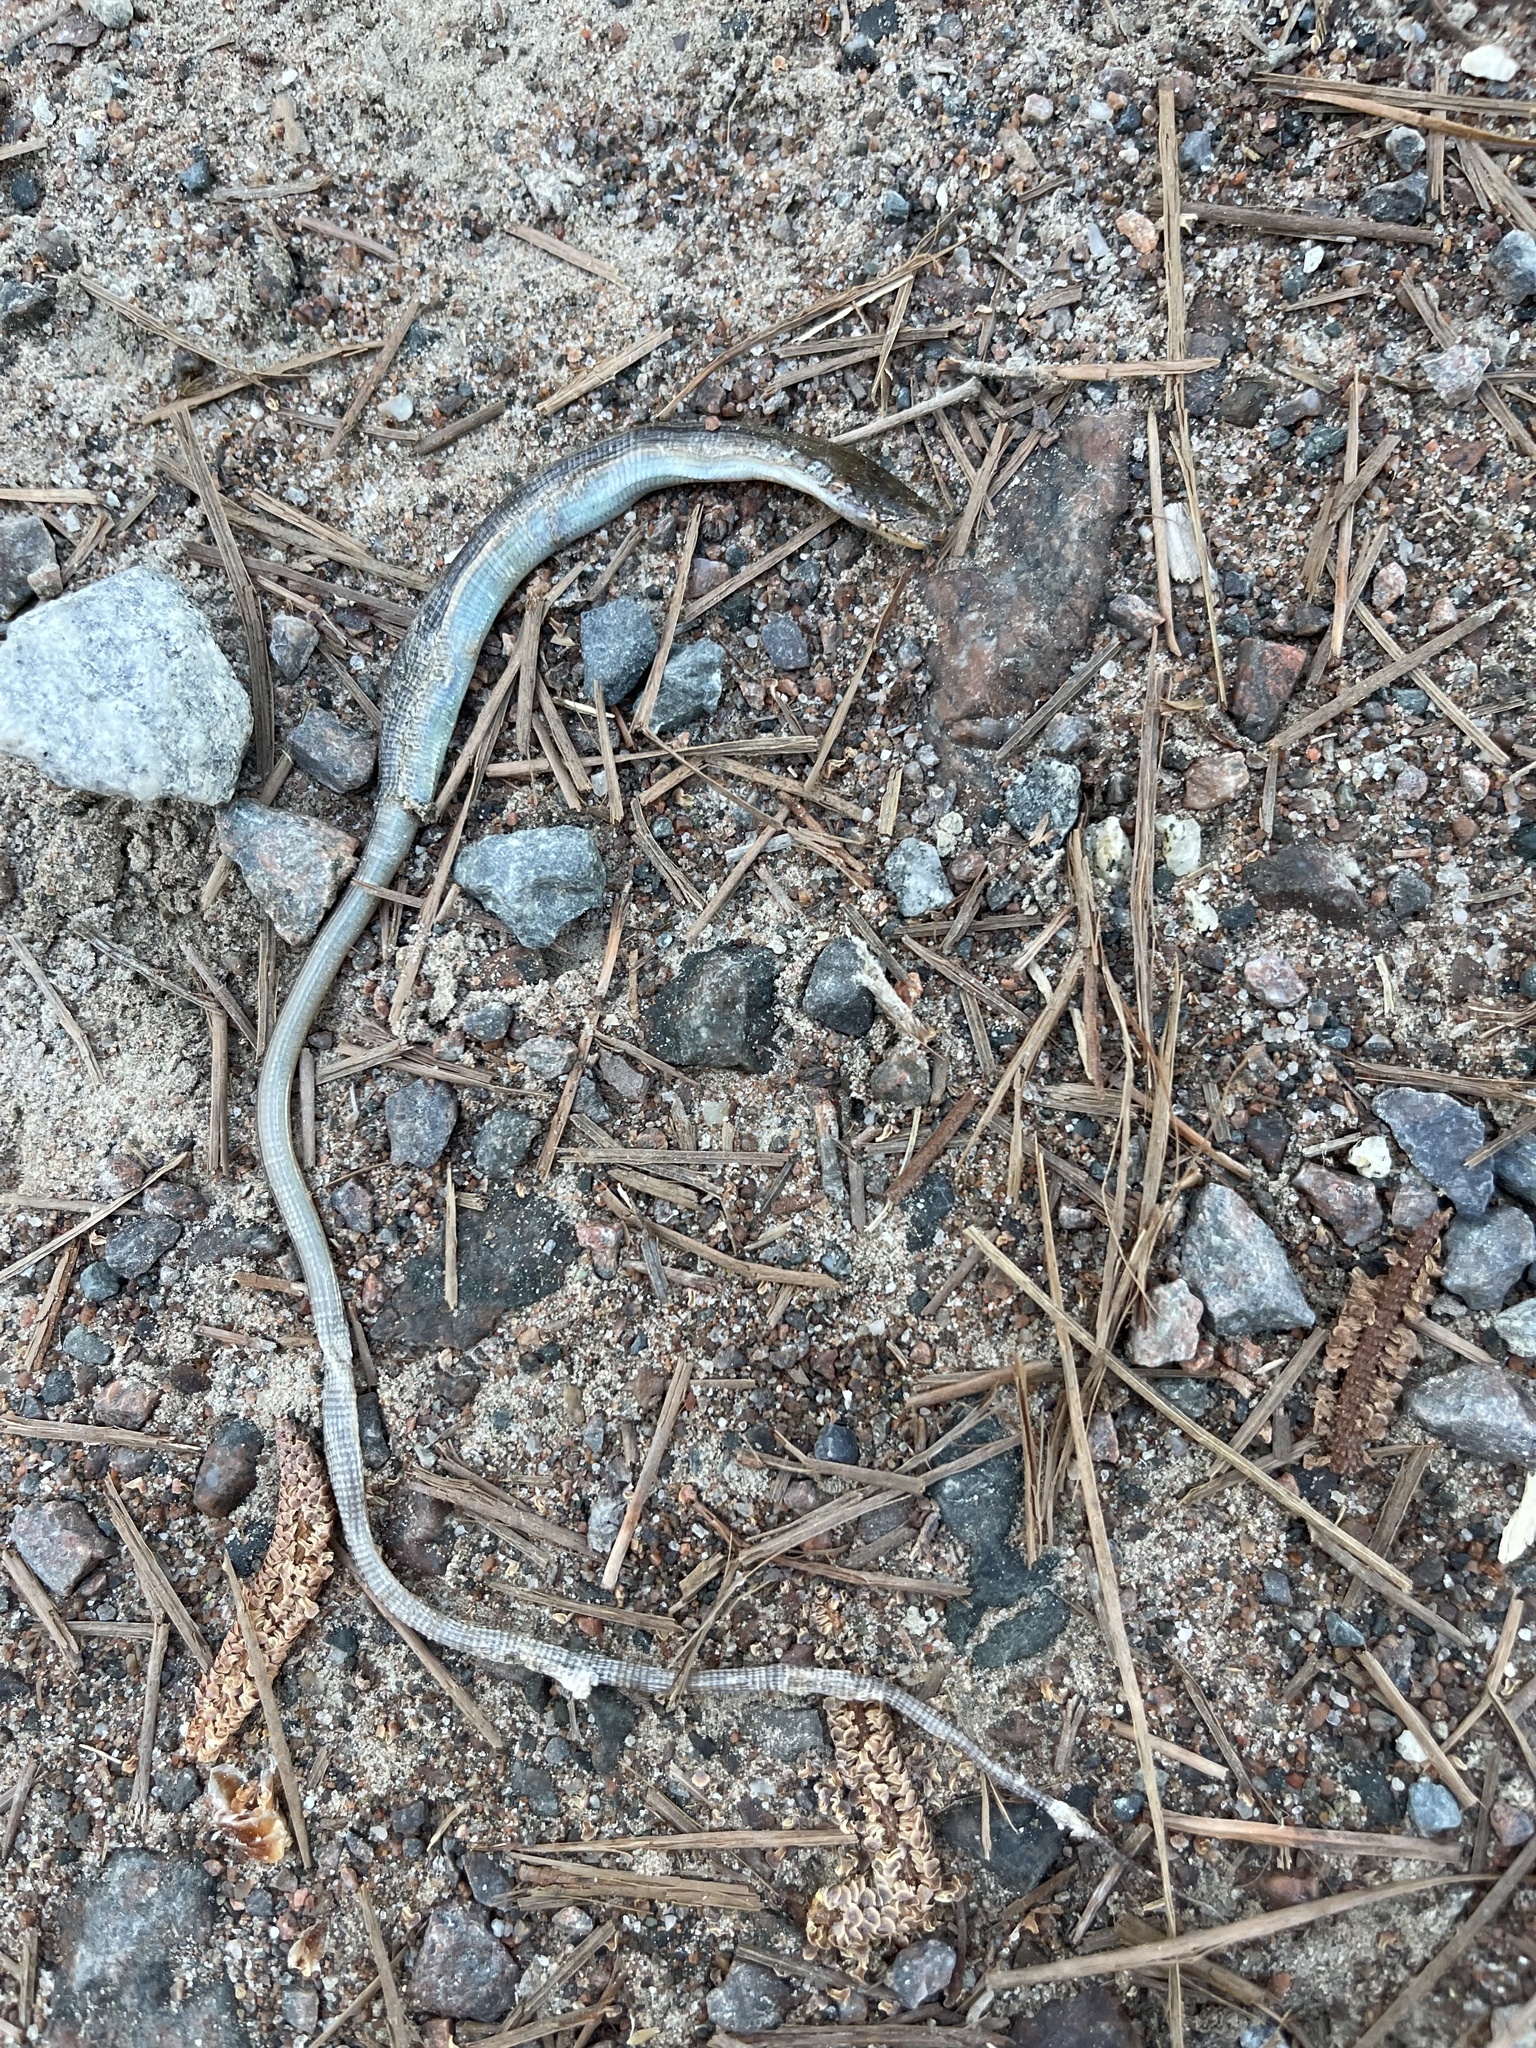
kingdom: Animalia
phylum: Chordata
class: Squamata
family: Anguidae
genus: Ophisaurus
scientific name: Ophisaurus ventralis
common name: Eastern glass lizard
